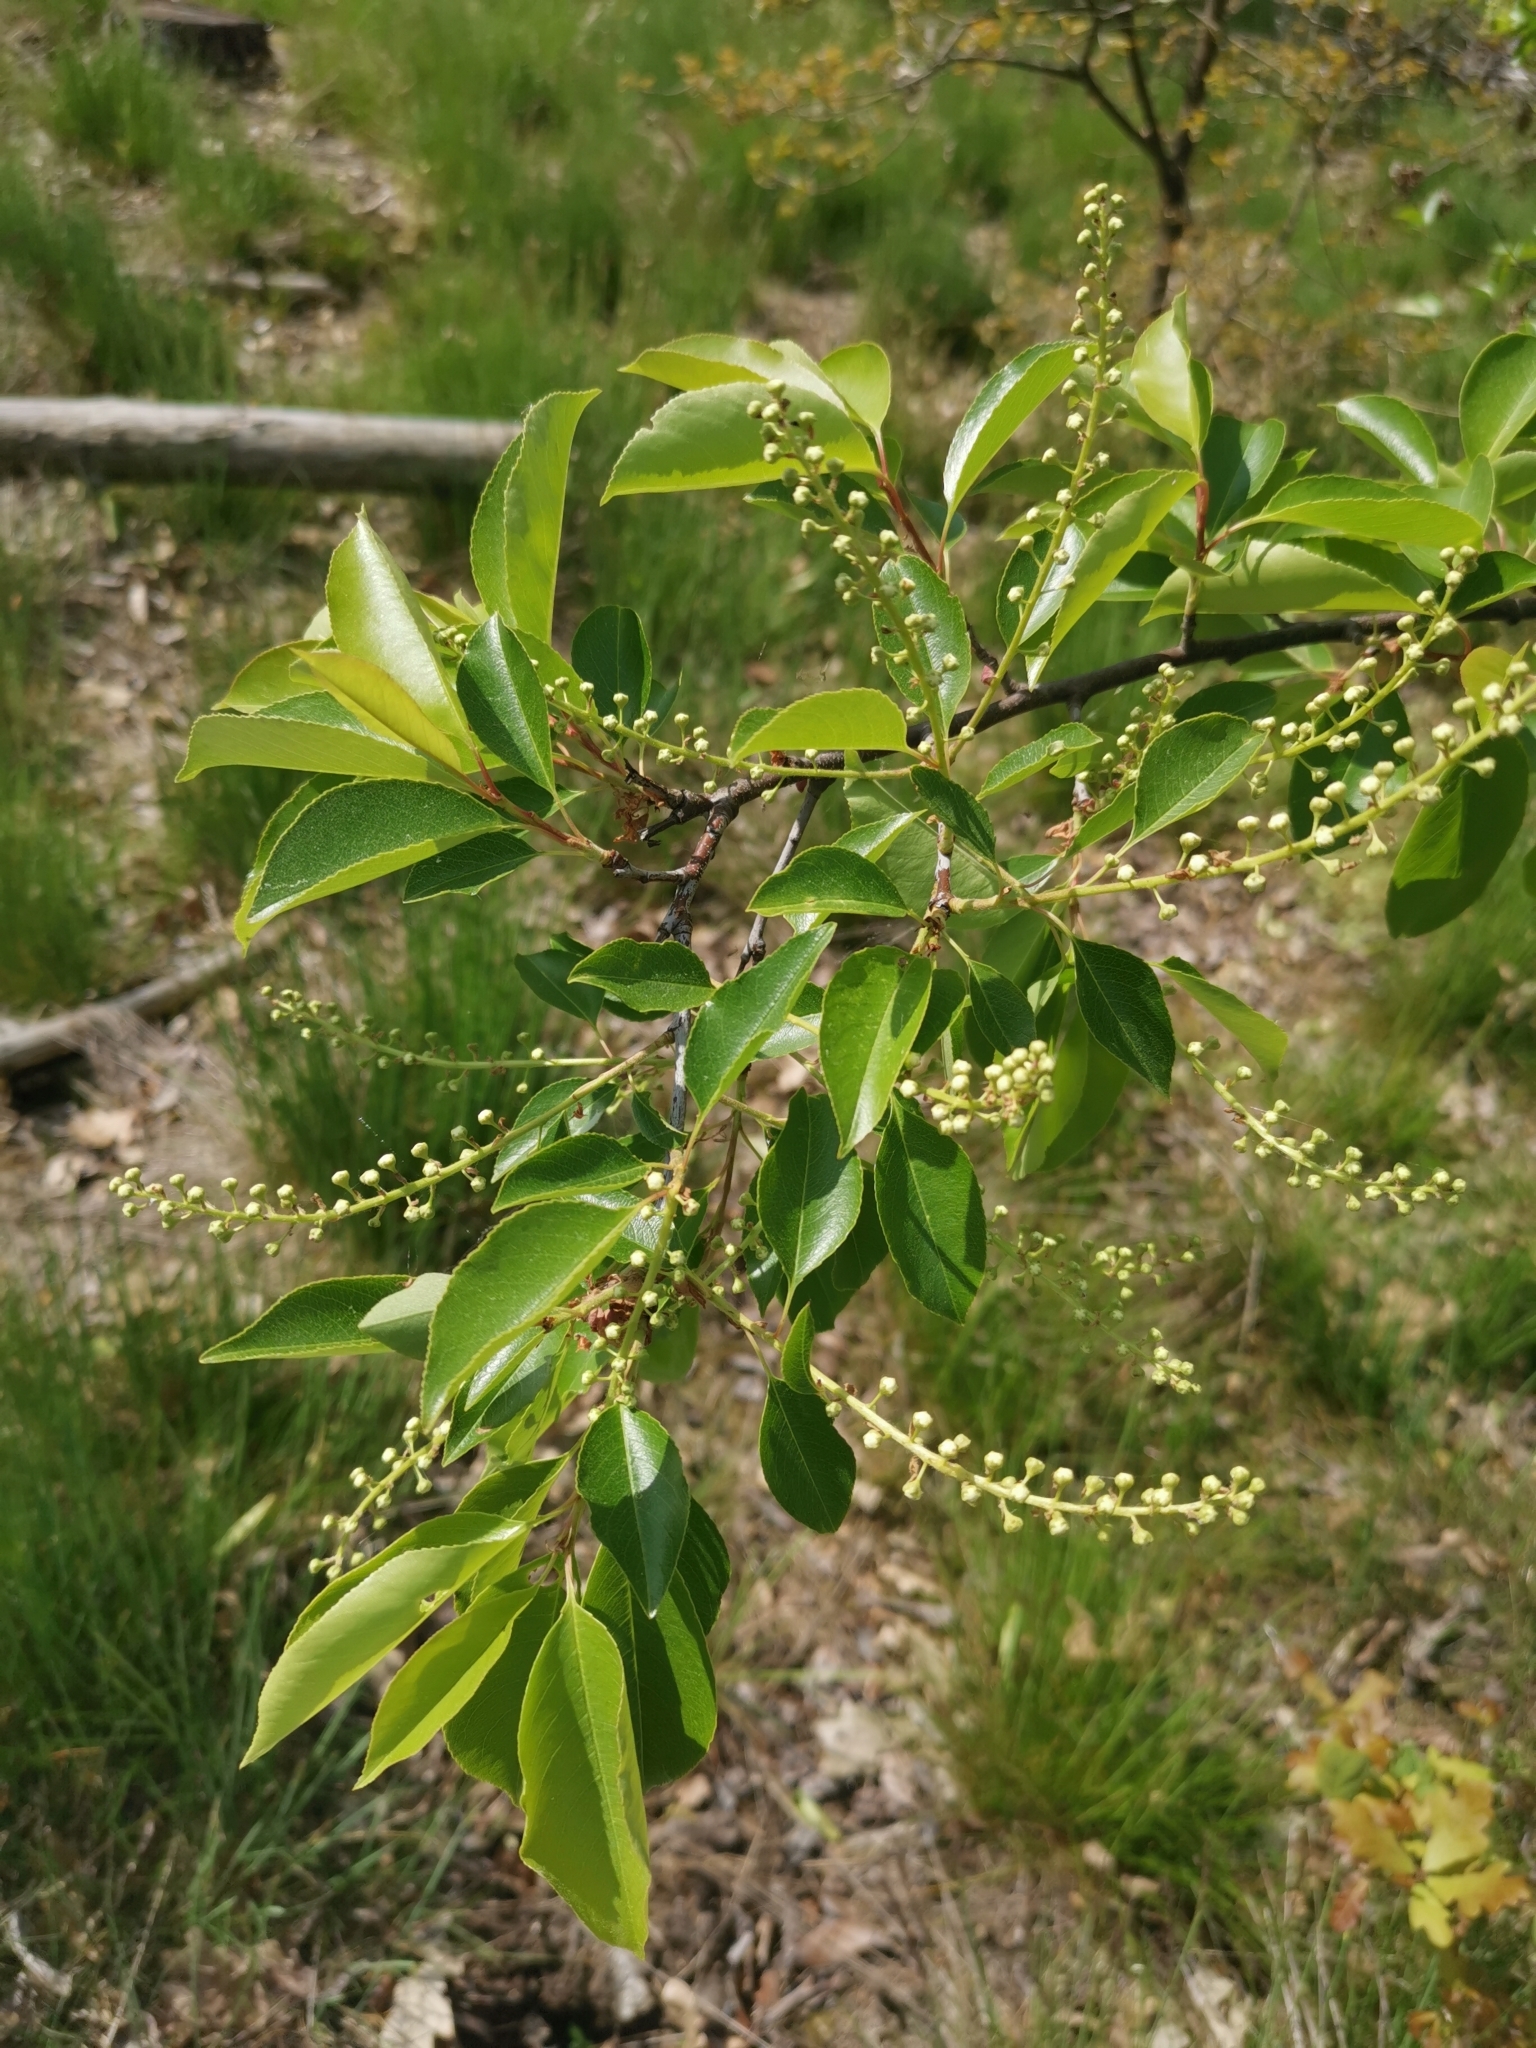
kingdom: Plantae
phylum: Tracheophyta
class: Magnoliopsida
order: Rosales
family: Rosaceae
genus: Prunus
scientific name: Prunus serotina
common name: Black cherry
